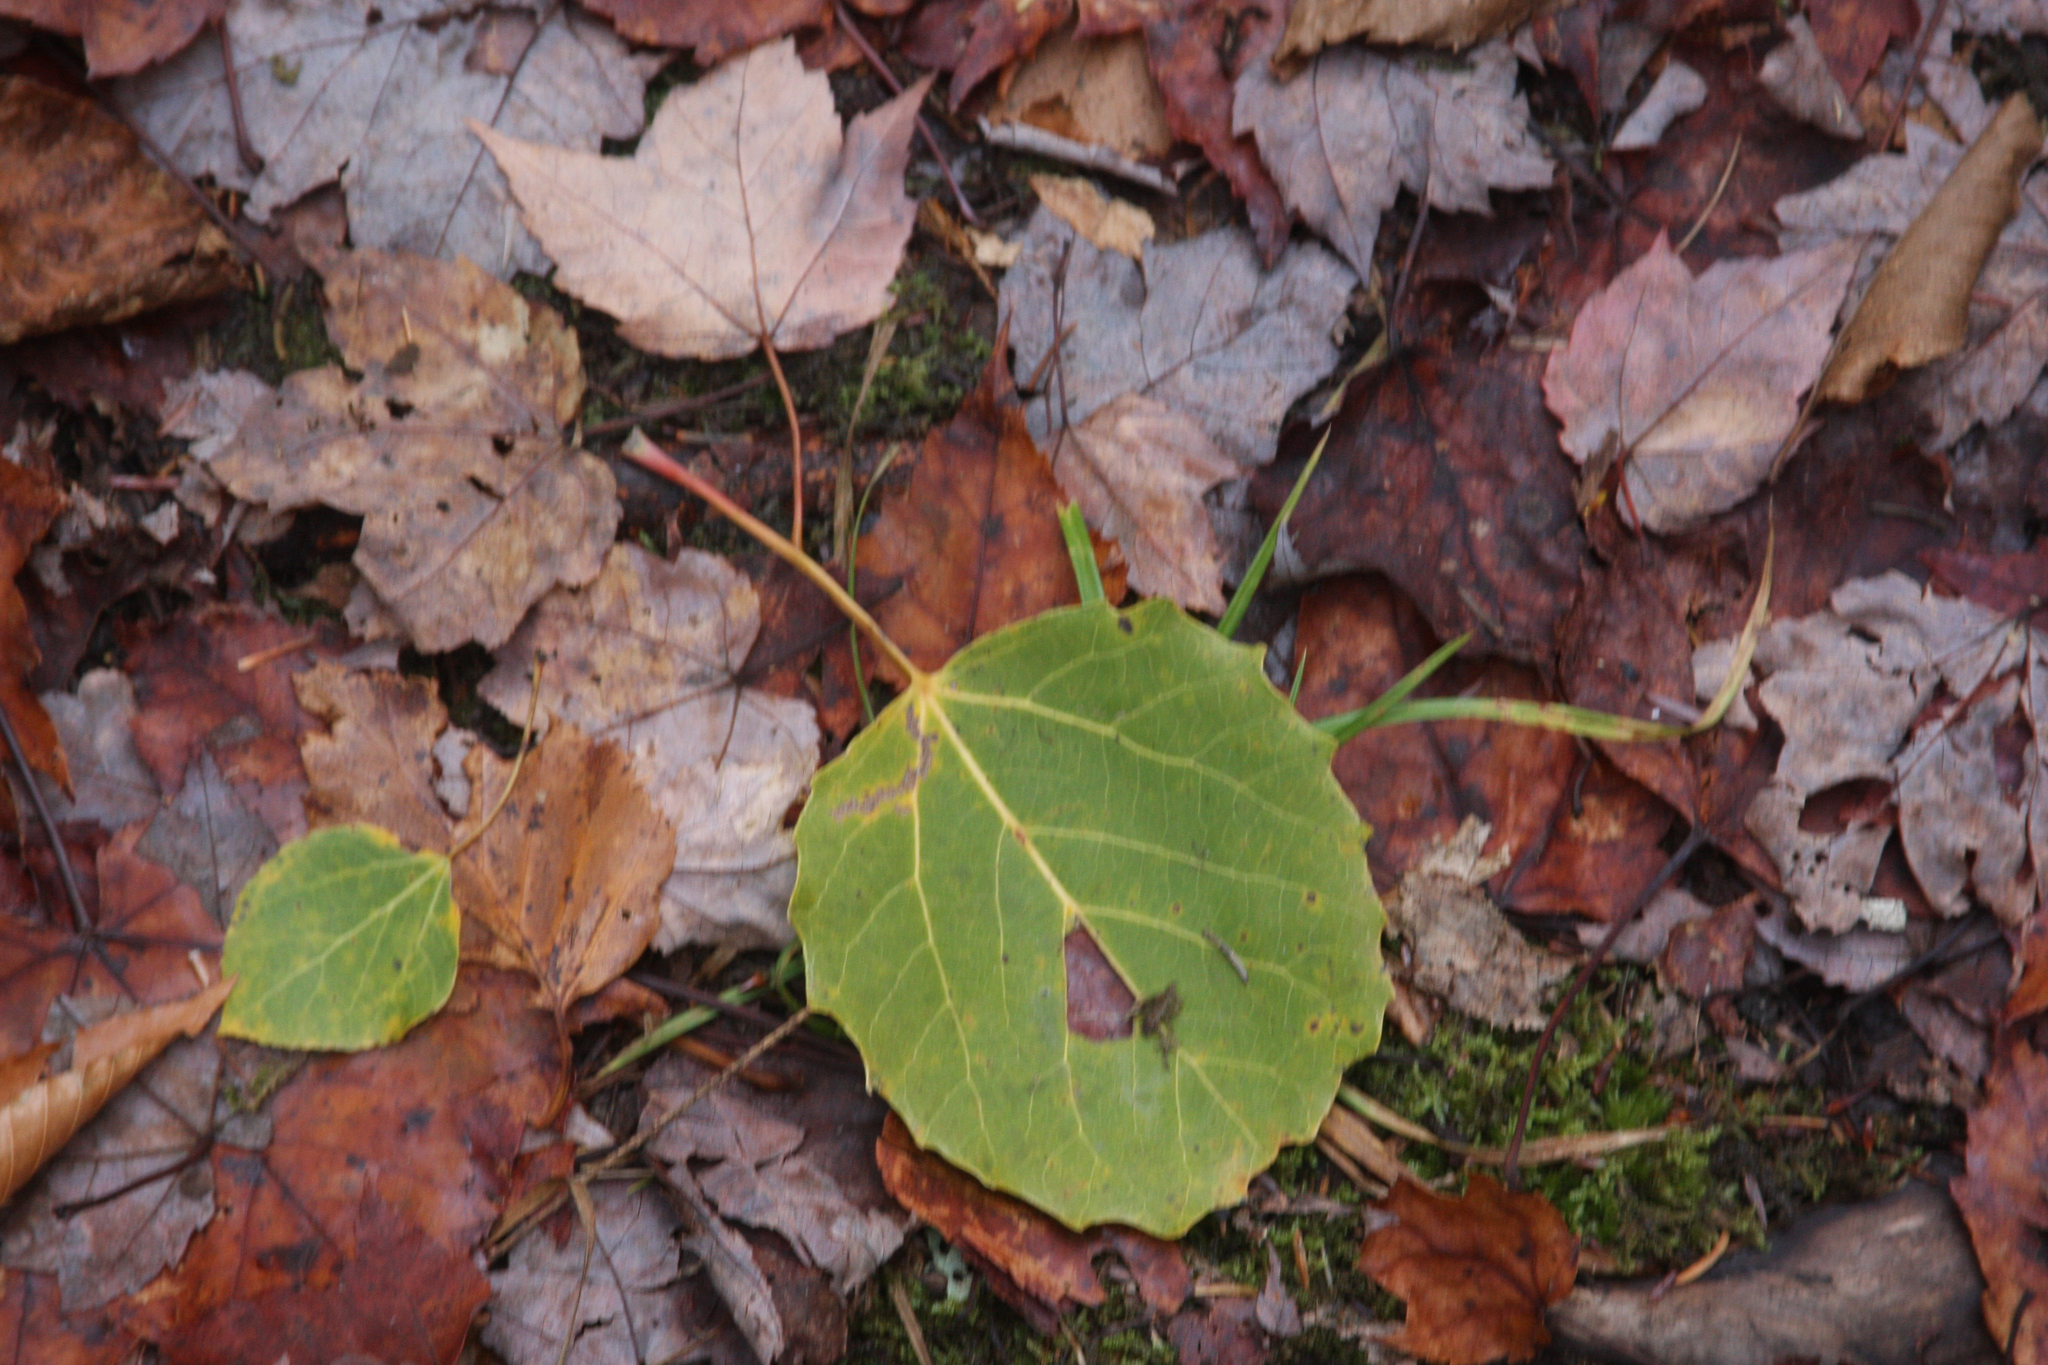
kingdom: Plantae
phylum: Tracheophyta
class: Magnoliopsida
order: Malpighiales
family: Salicaceae
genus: Populus
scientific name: Populus grandidentata
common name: Bigtooth aspen
